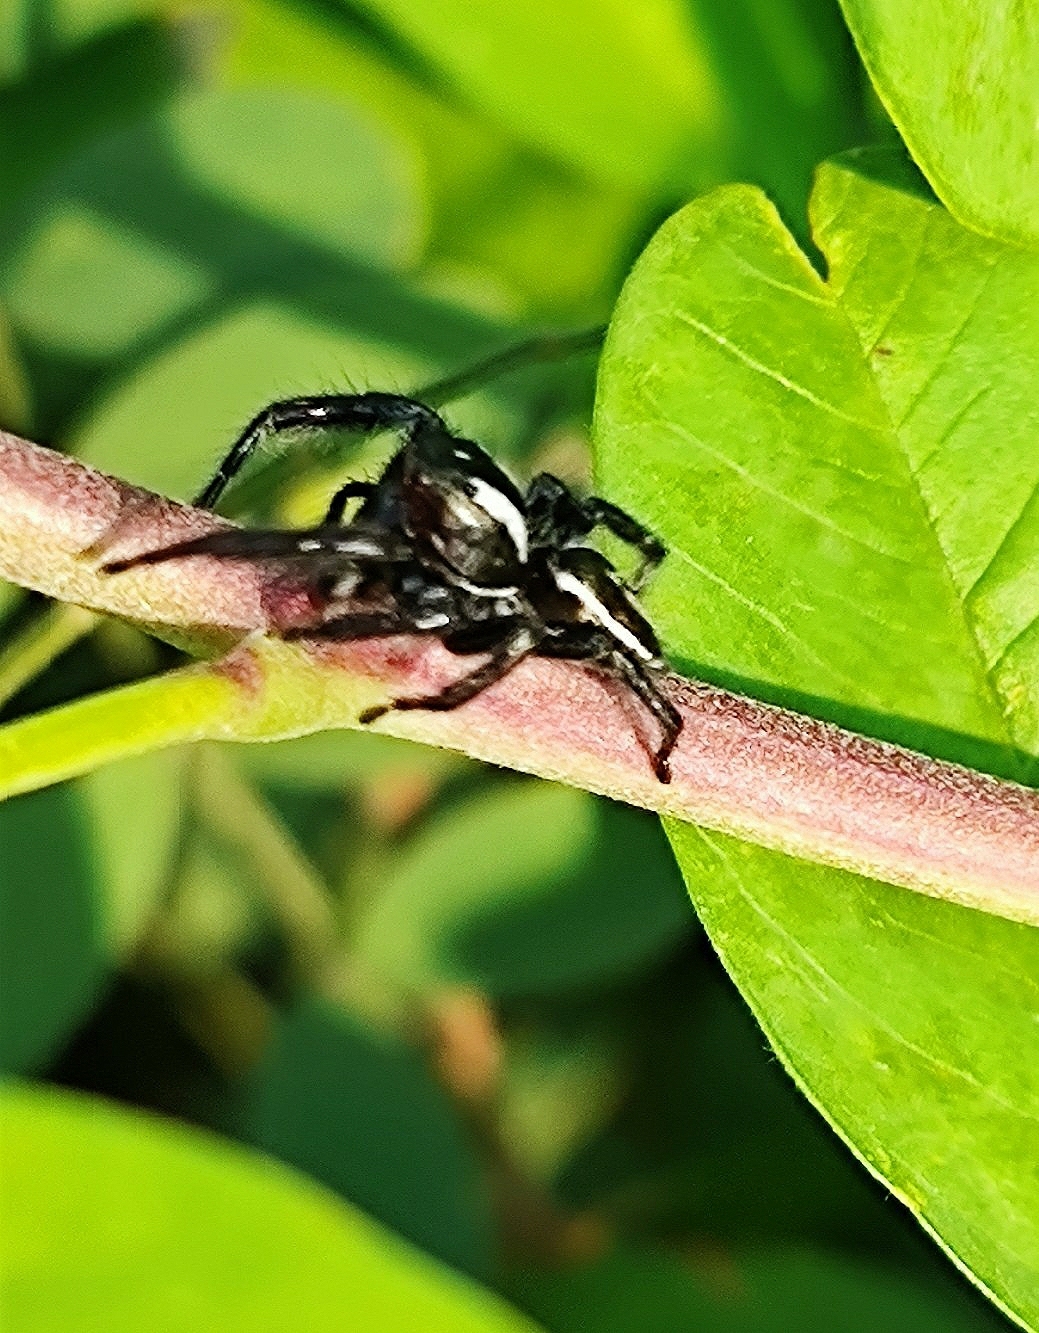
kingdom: Animalia
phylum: Arthropoda
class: Arachnida
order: Araneae
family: Salticidae
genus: Carrhotus
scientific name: Carrhotus viduus
